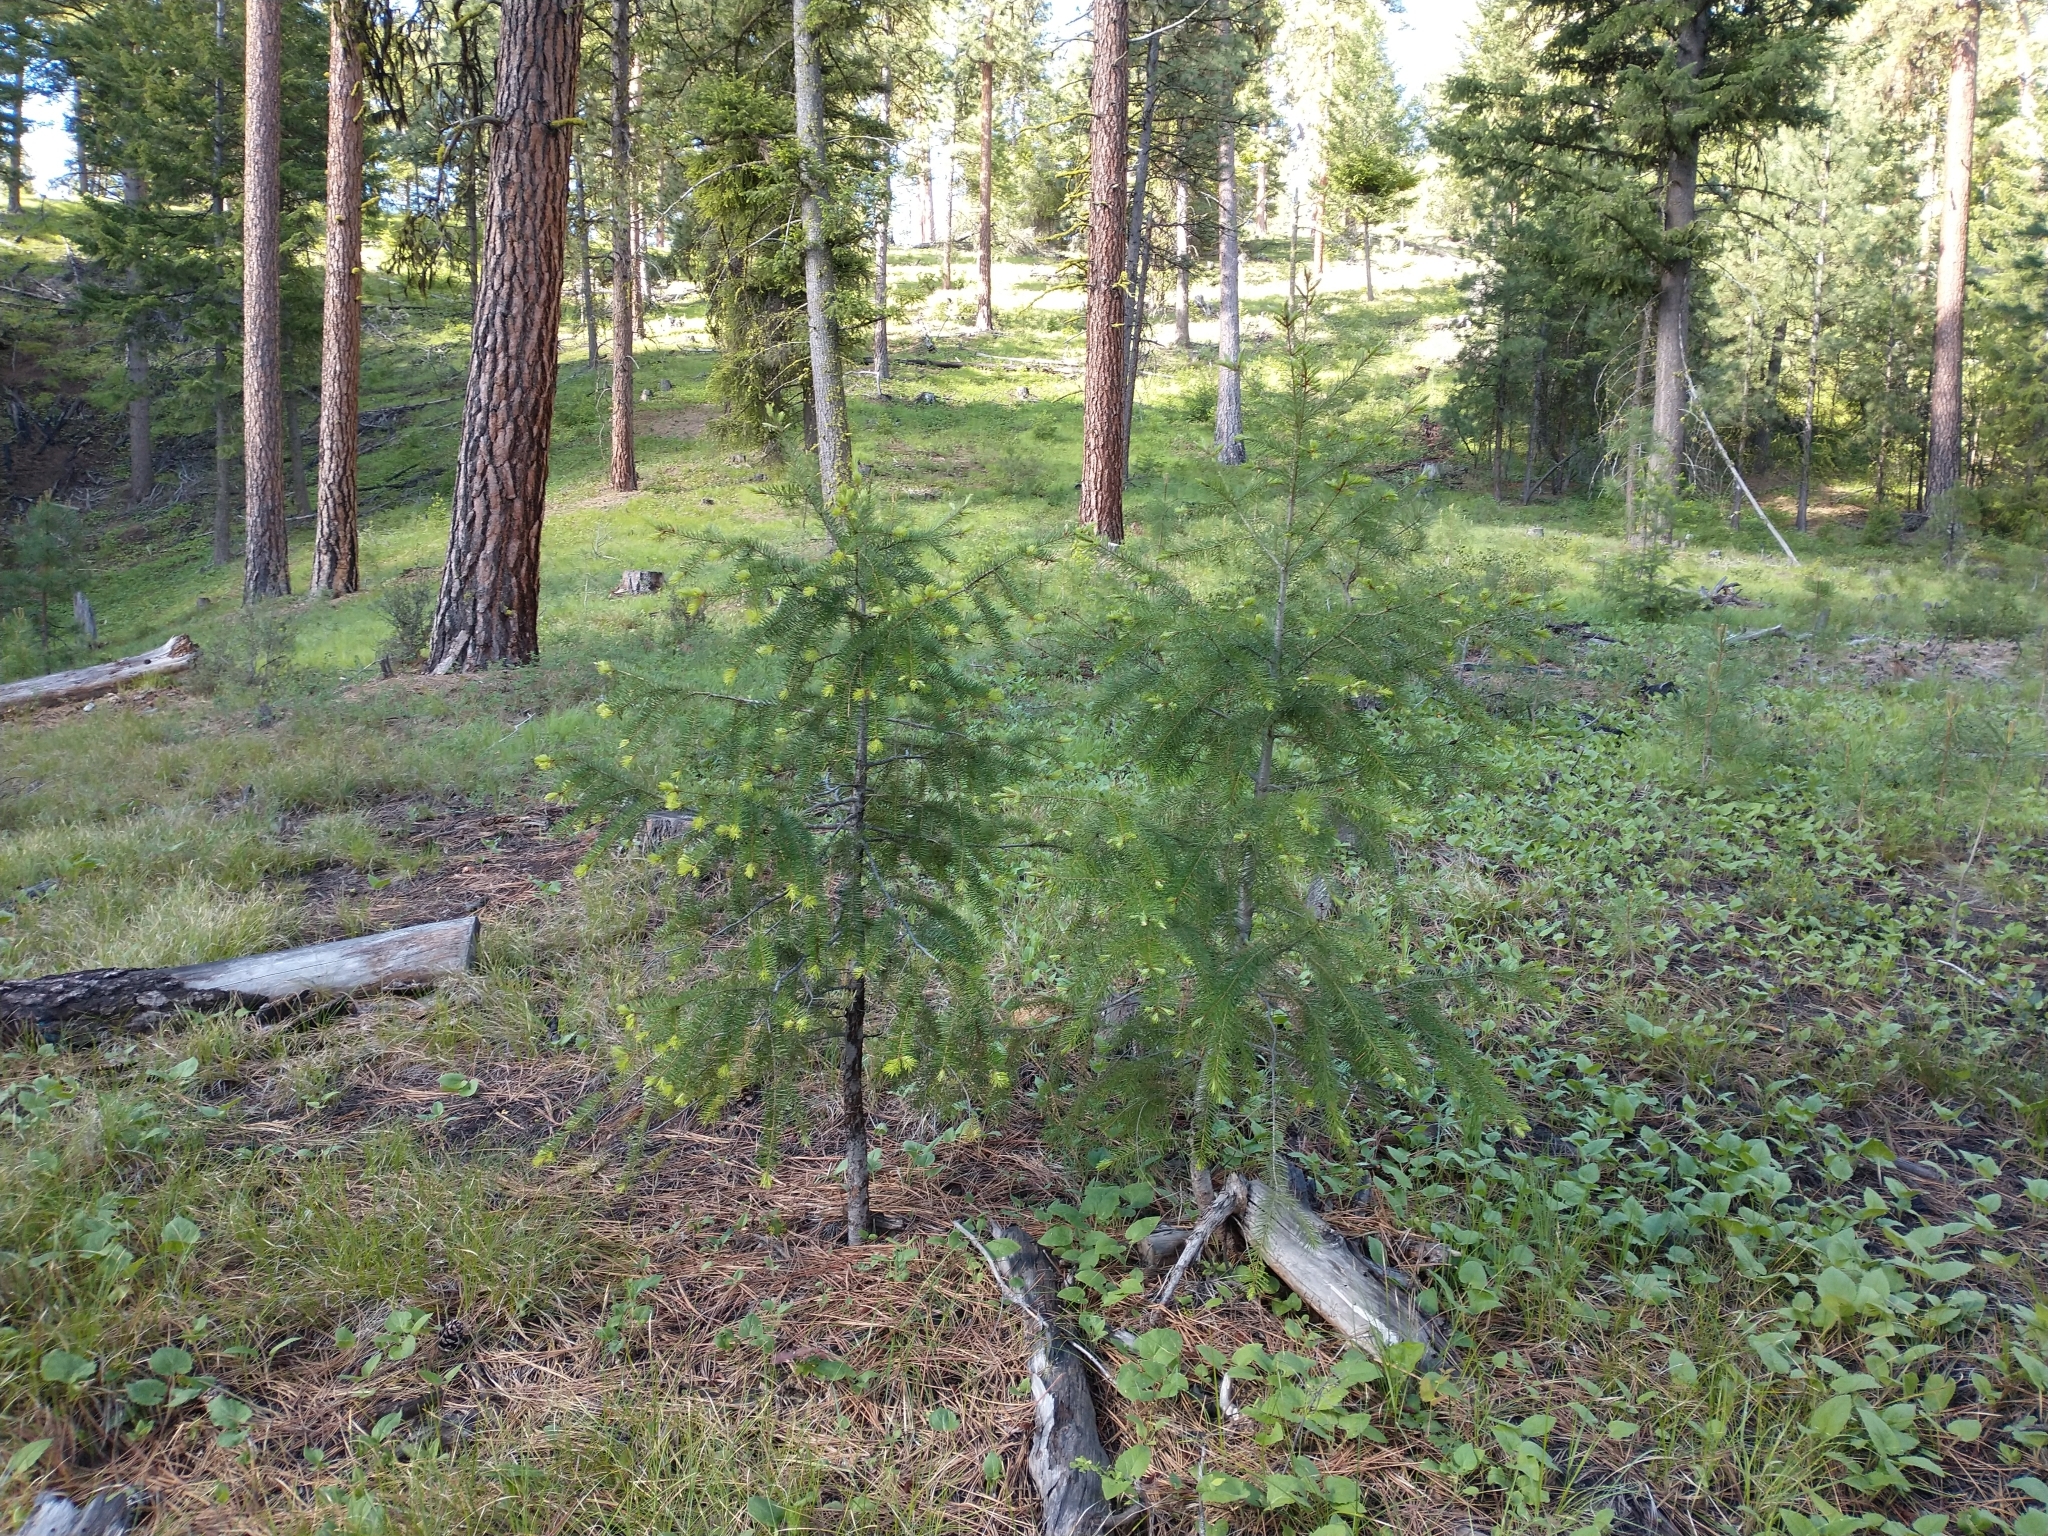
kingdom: Plantae
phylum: Tracheophyta
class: Pinopsida
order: Pinales
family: Pinaceae
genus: Pseudotsuga
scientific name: Pseudotsuga menziesii
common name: Douglas fir
